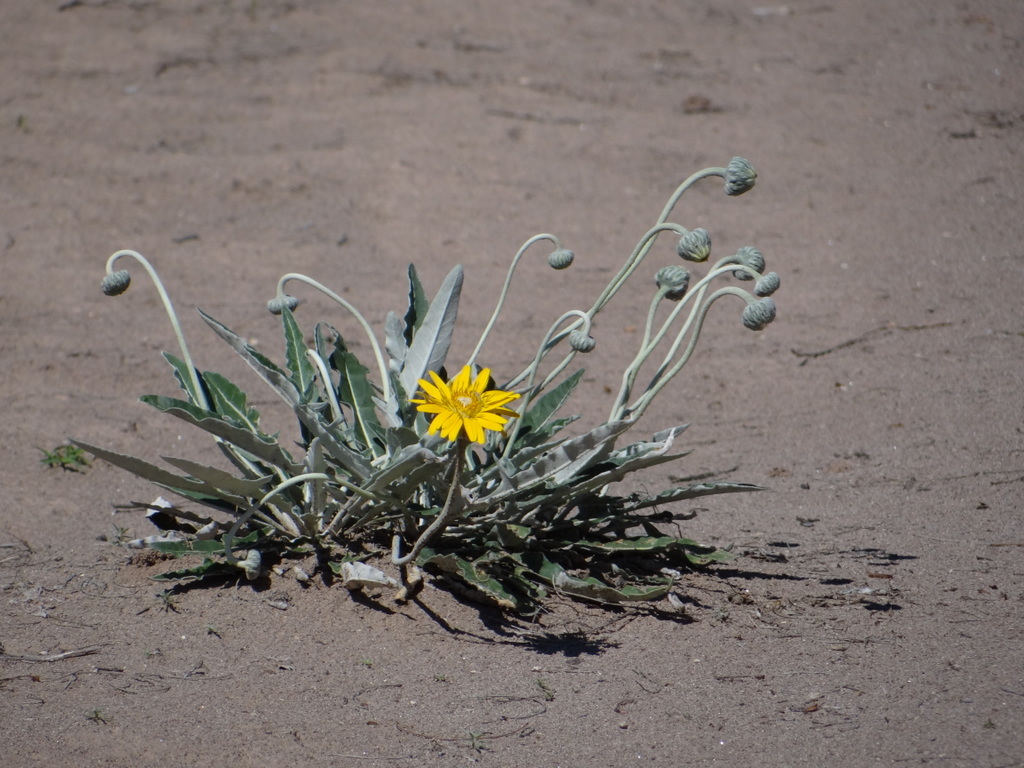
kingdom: Plantae
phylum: Tracheophyta
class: Magnoliopsida
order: Asterales
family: Asteraceae
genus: Trichocline
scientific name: Trichocline sinuata
